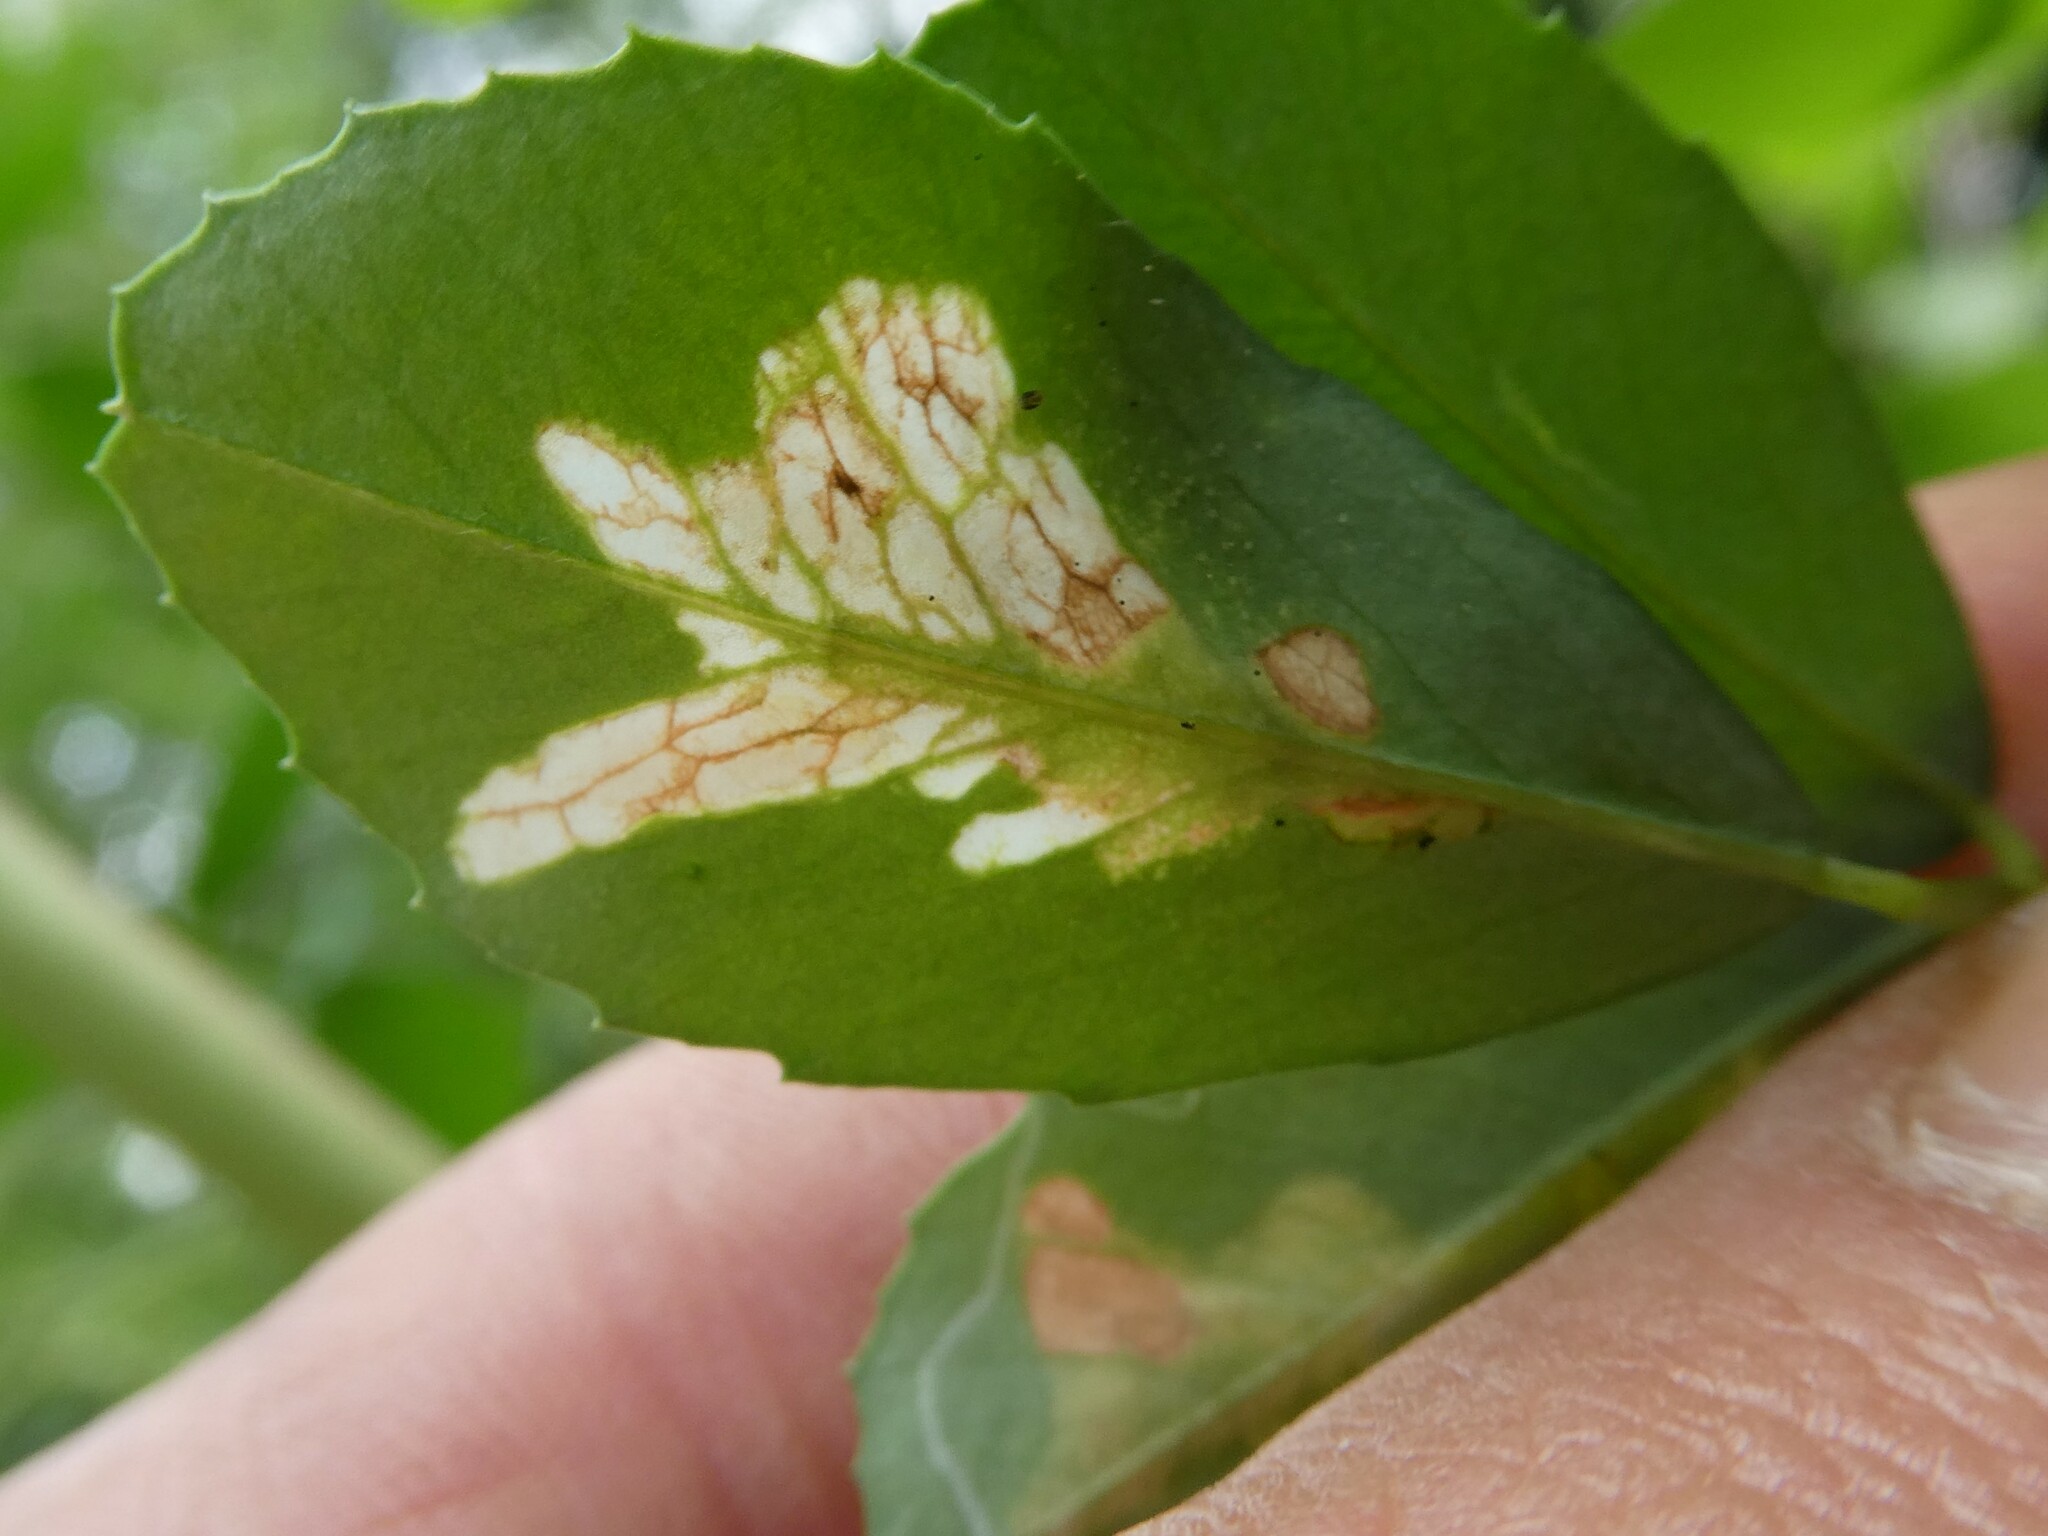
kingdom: Animalia
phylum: Arthropoda
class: Insecta
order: Lepidoptera
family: Gracillariidae
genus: Micrurapteryx
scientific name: Micrurapteryx occulta
